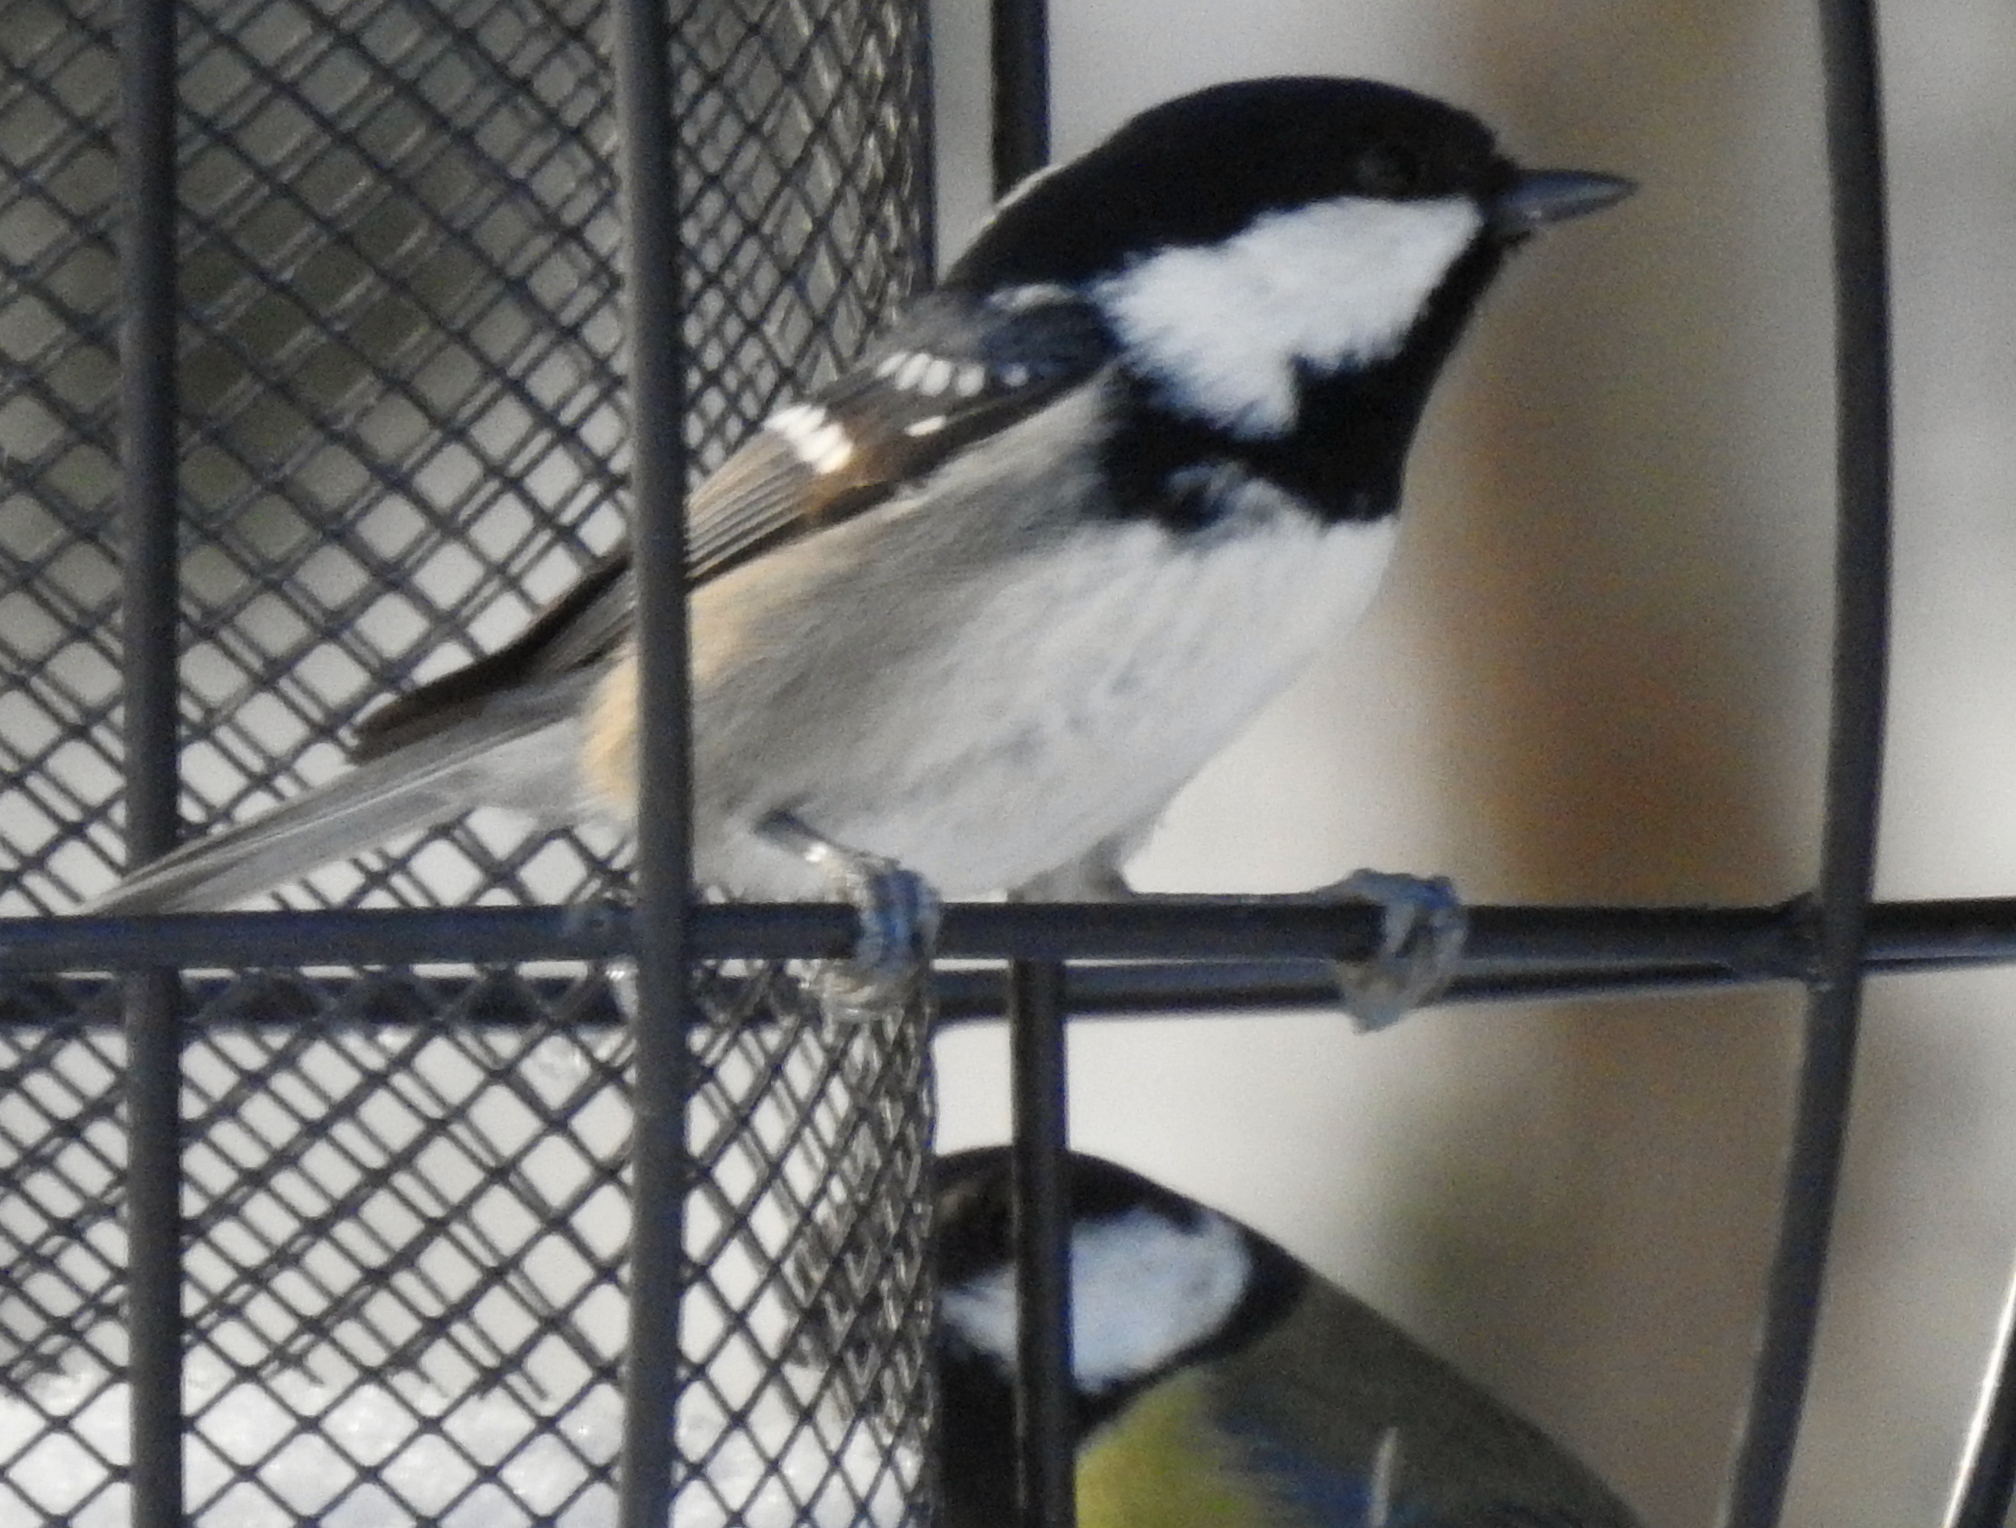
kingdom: Animalia
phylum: Chordata
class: Aves
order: Passeriformes
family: Paridae
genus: Periparus
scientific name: Periparus ater
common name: Coal tit
